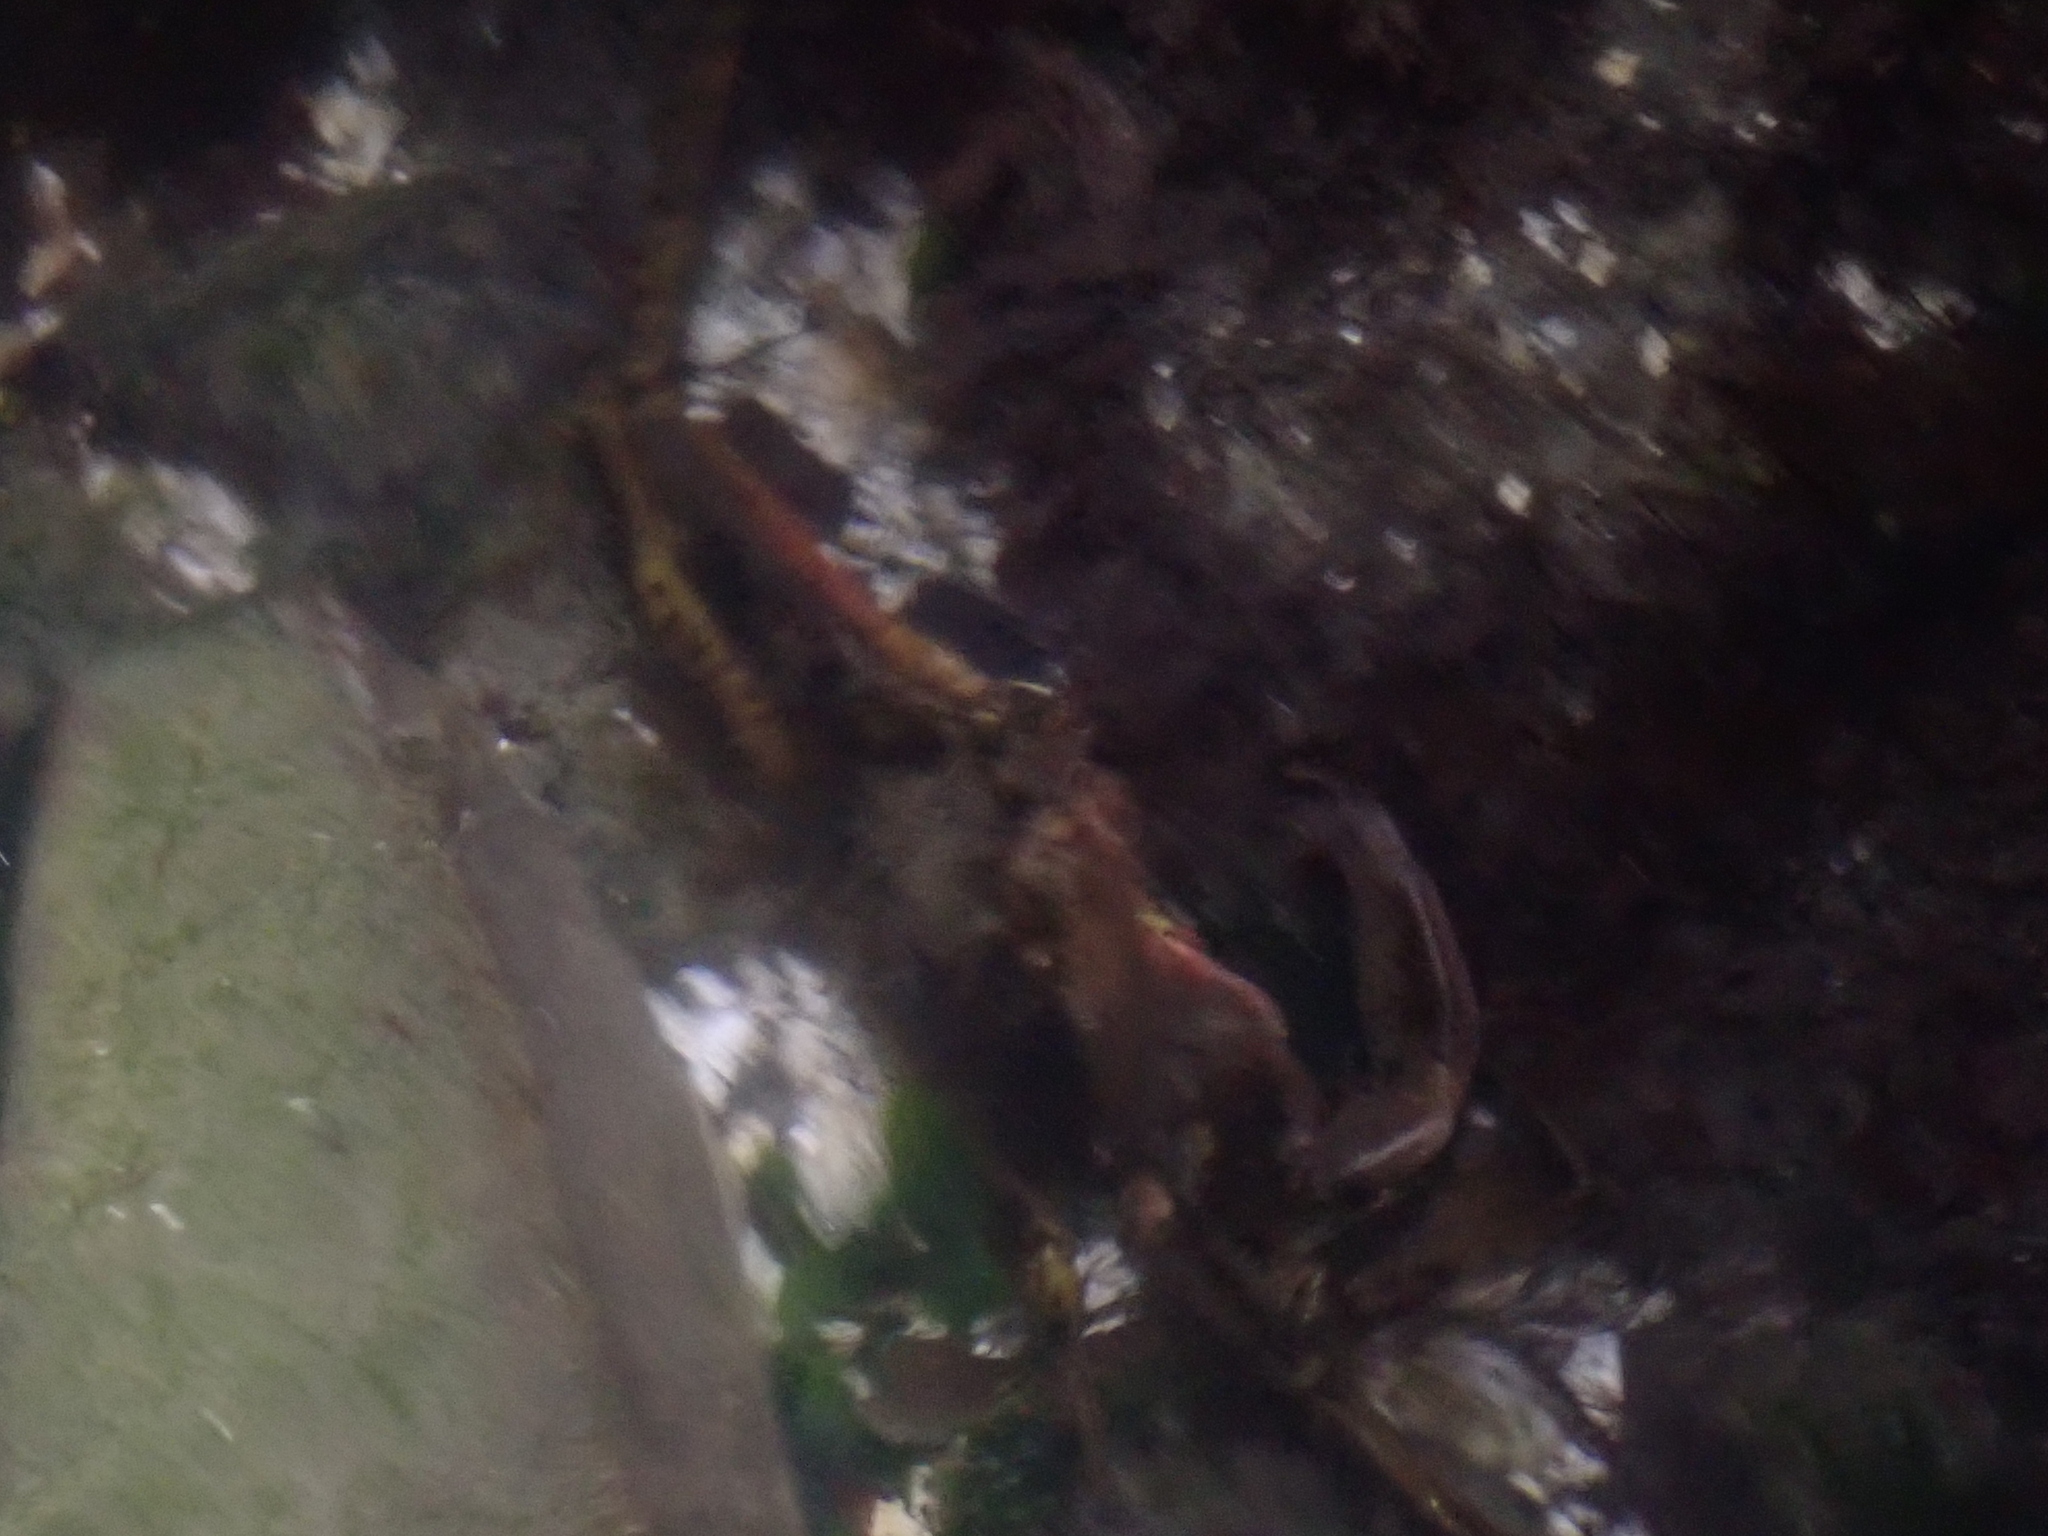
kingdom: Animalia
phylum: Arthropoda
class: Malacostraca
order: Decapoda
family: Epialtidae
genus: Pugettia
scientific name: Pugettia producta
